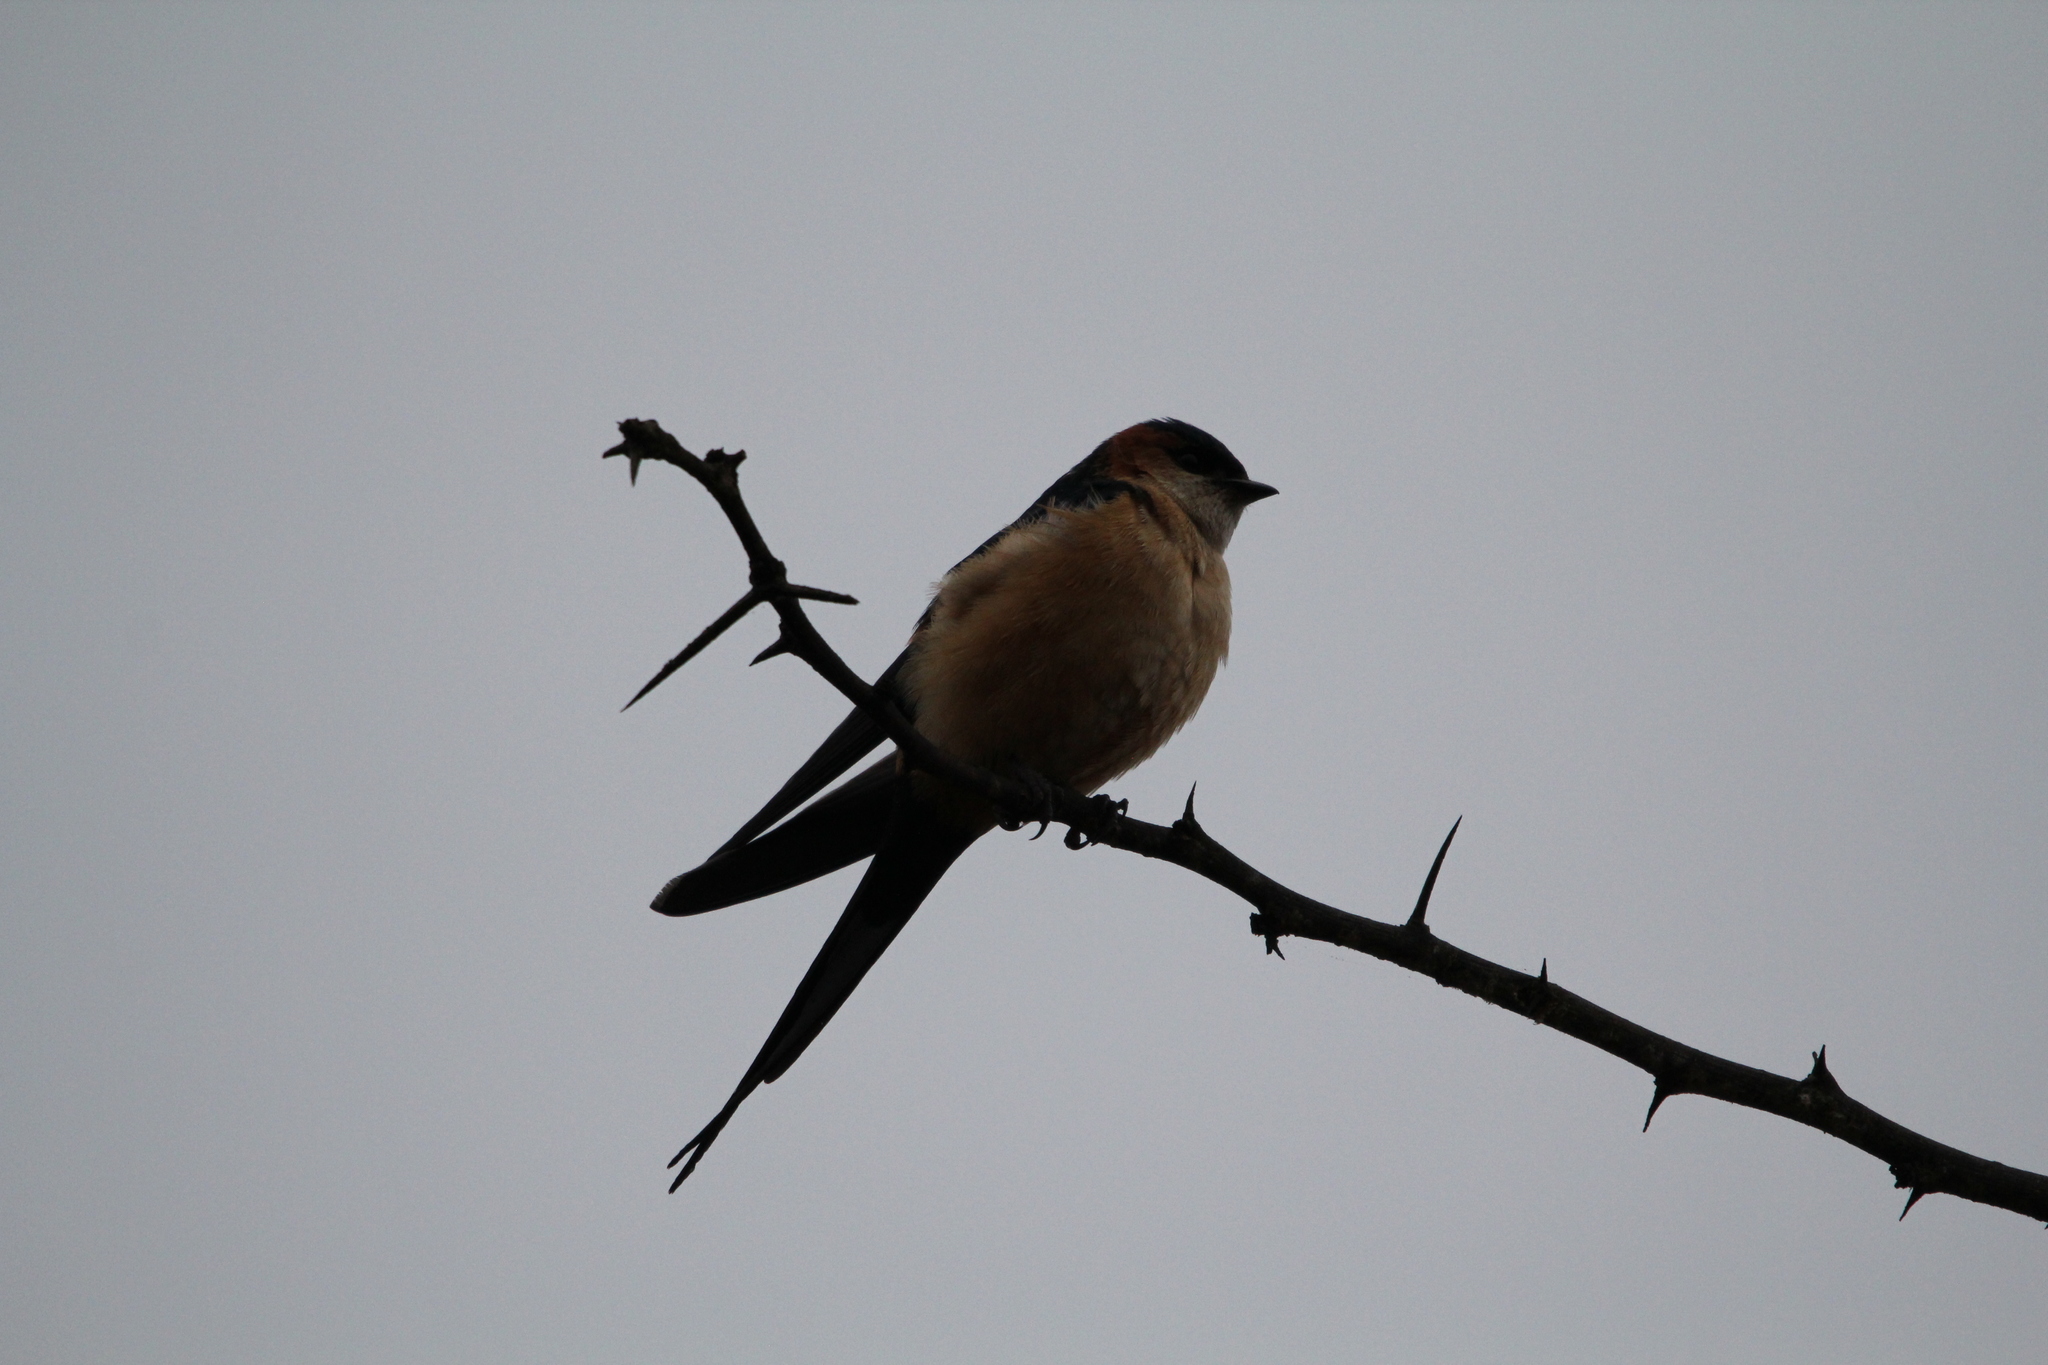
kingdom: Animalia
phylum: Chordata
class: Aves
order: Passeriformes
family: Hirundinidae
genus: Cecropis
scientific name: Cecropis daurica
